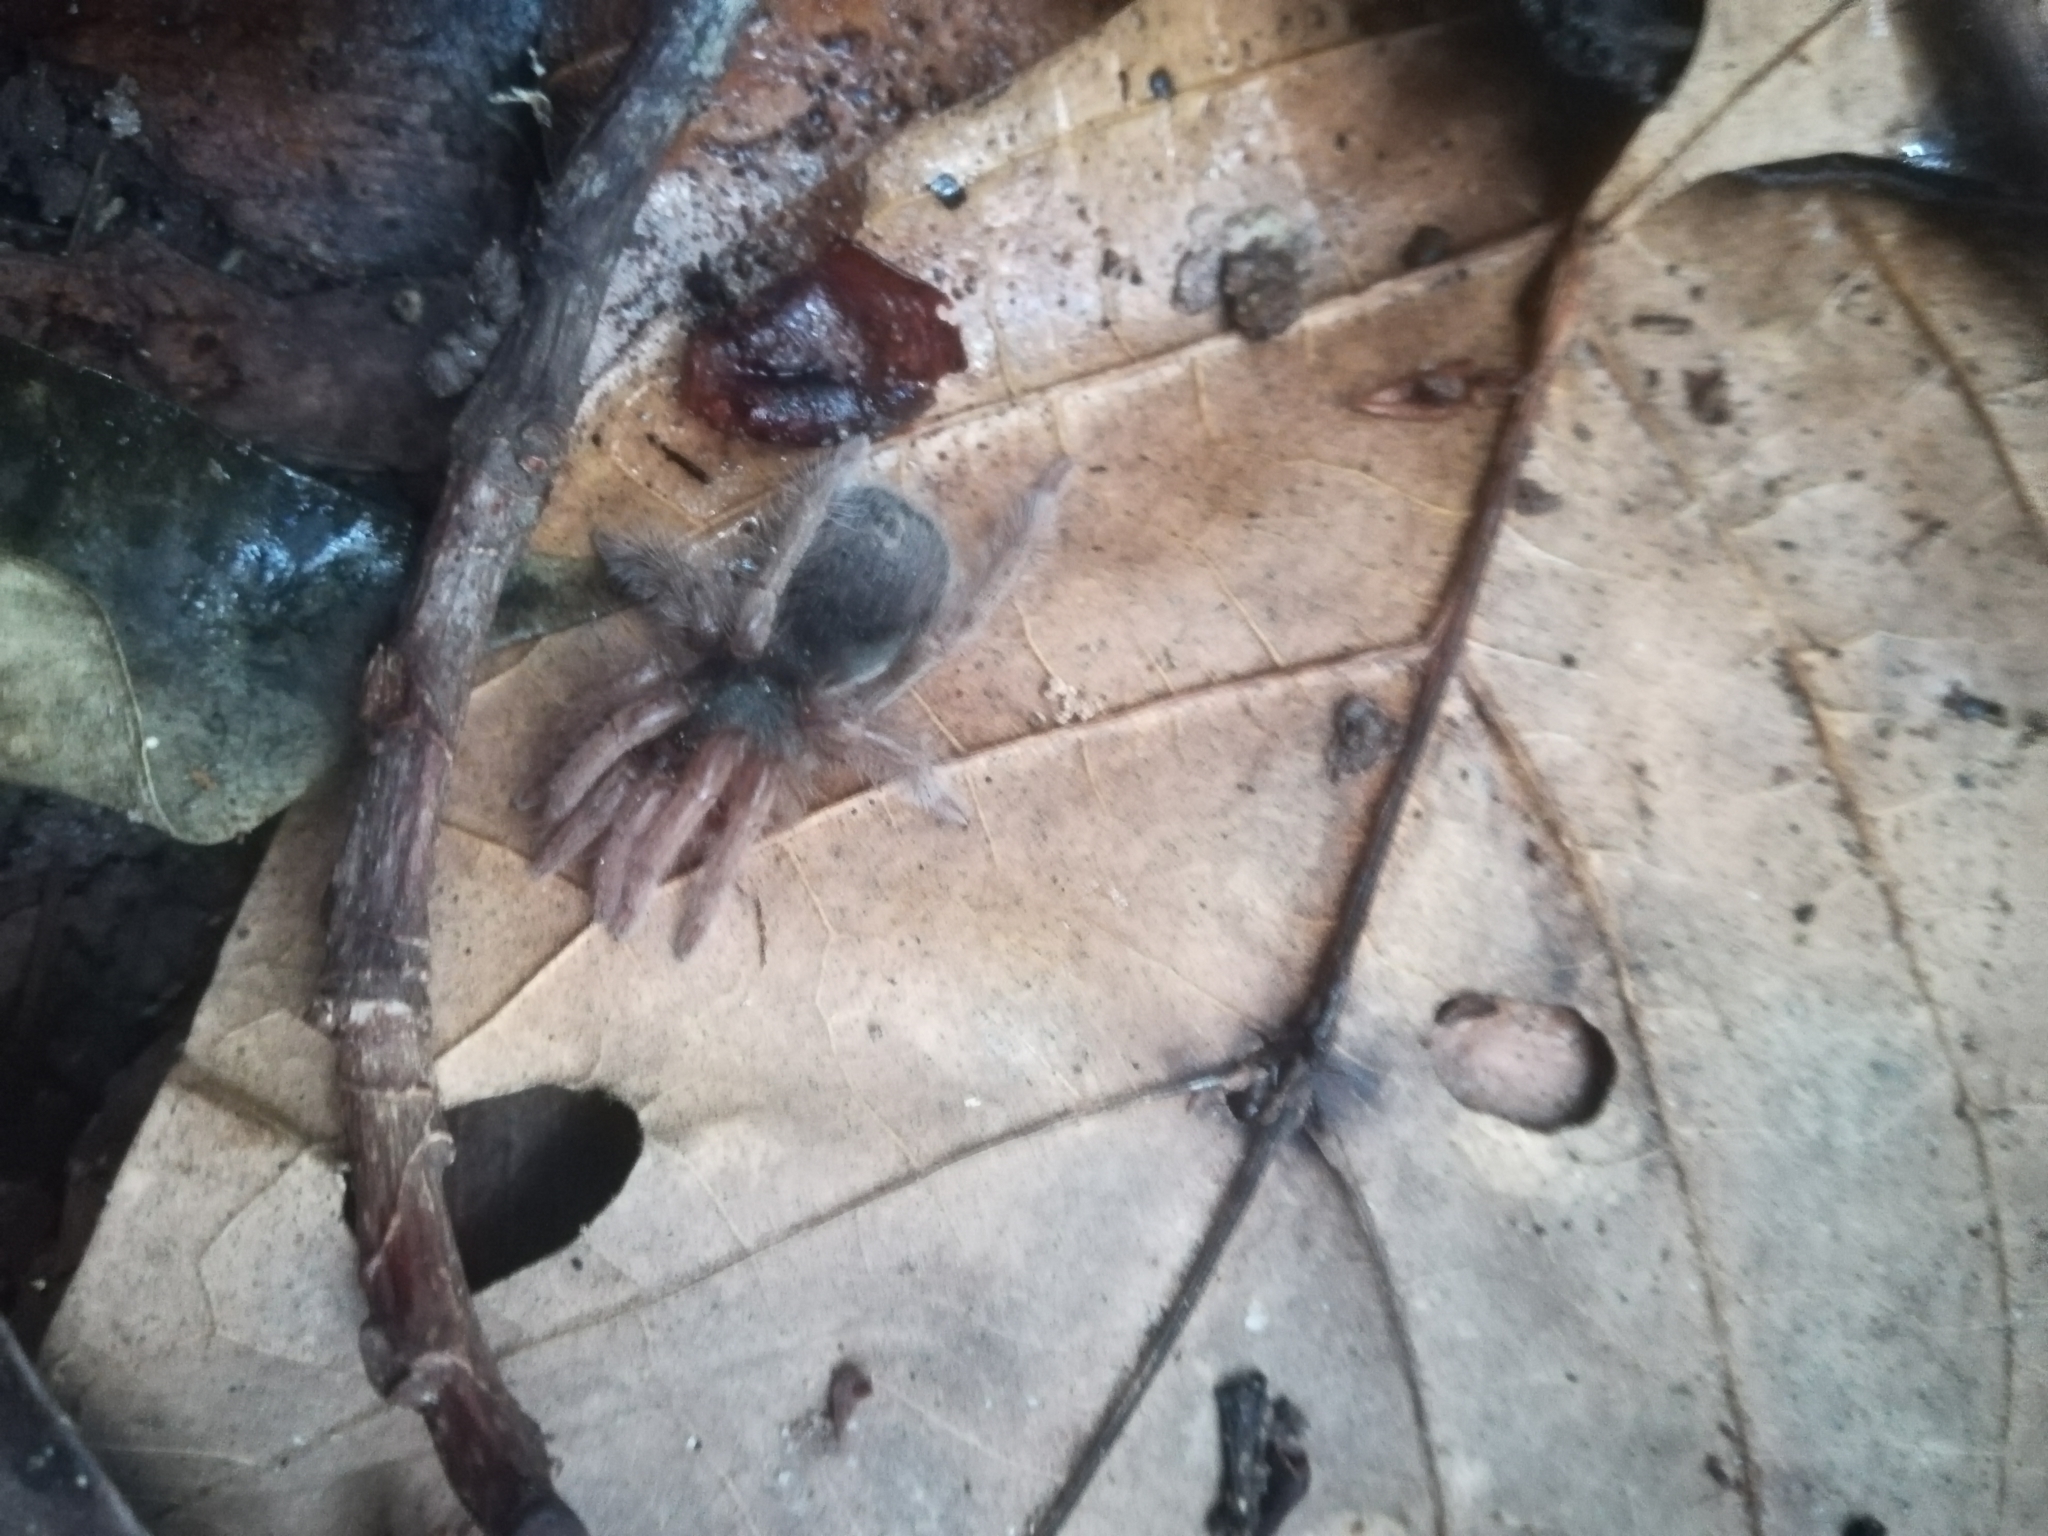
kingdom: Animalia
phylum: Arthropoda
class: Arachnida
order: Araneae
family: Theraphosidae
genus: Neostenotarsus
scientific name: Neostenotarsus guianensis
